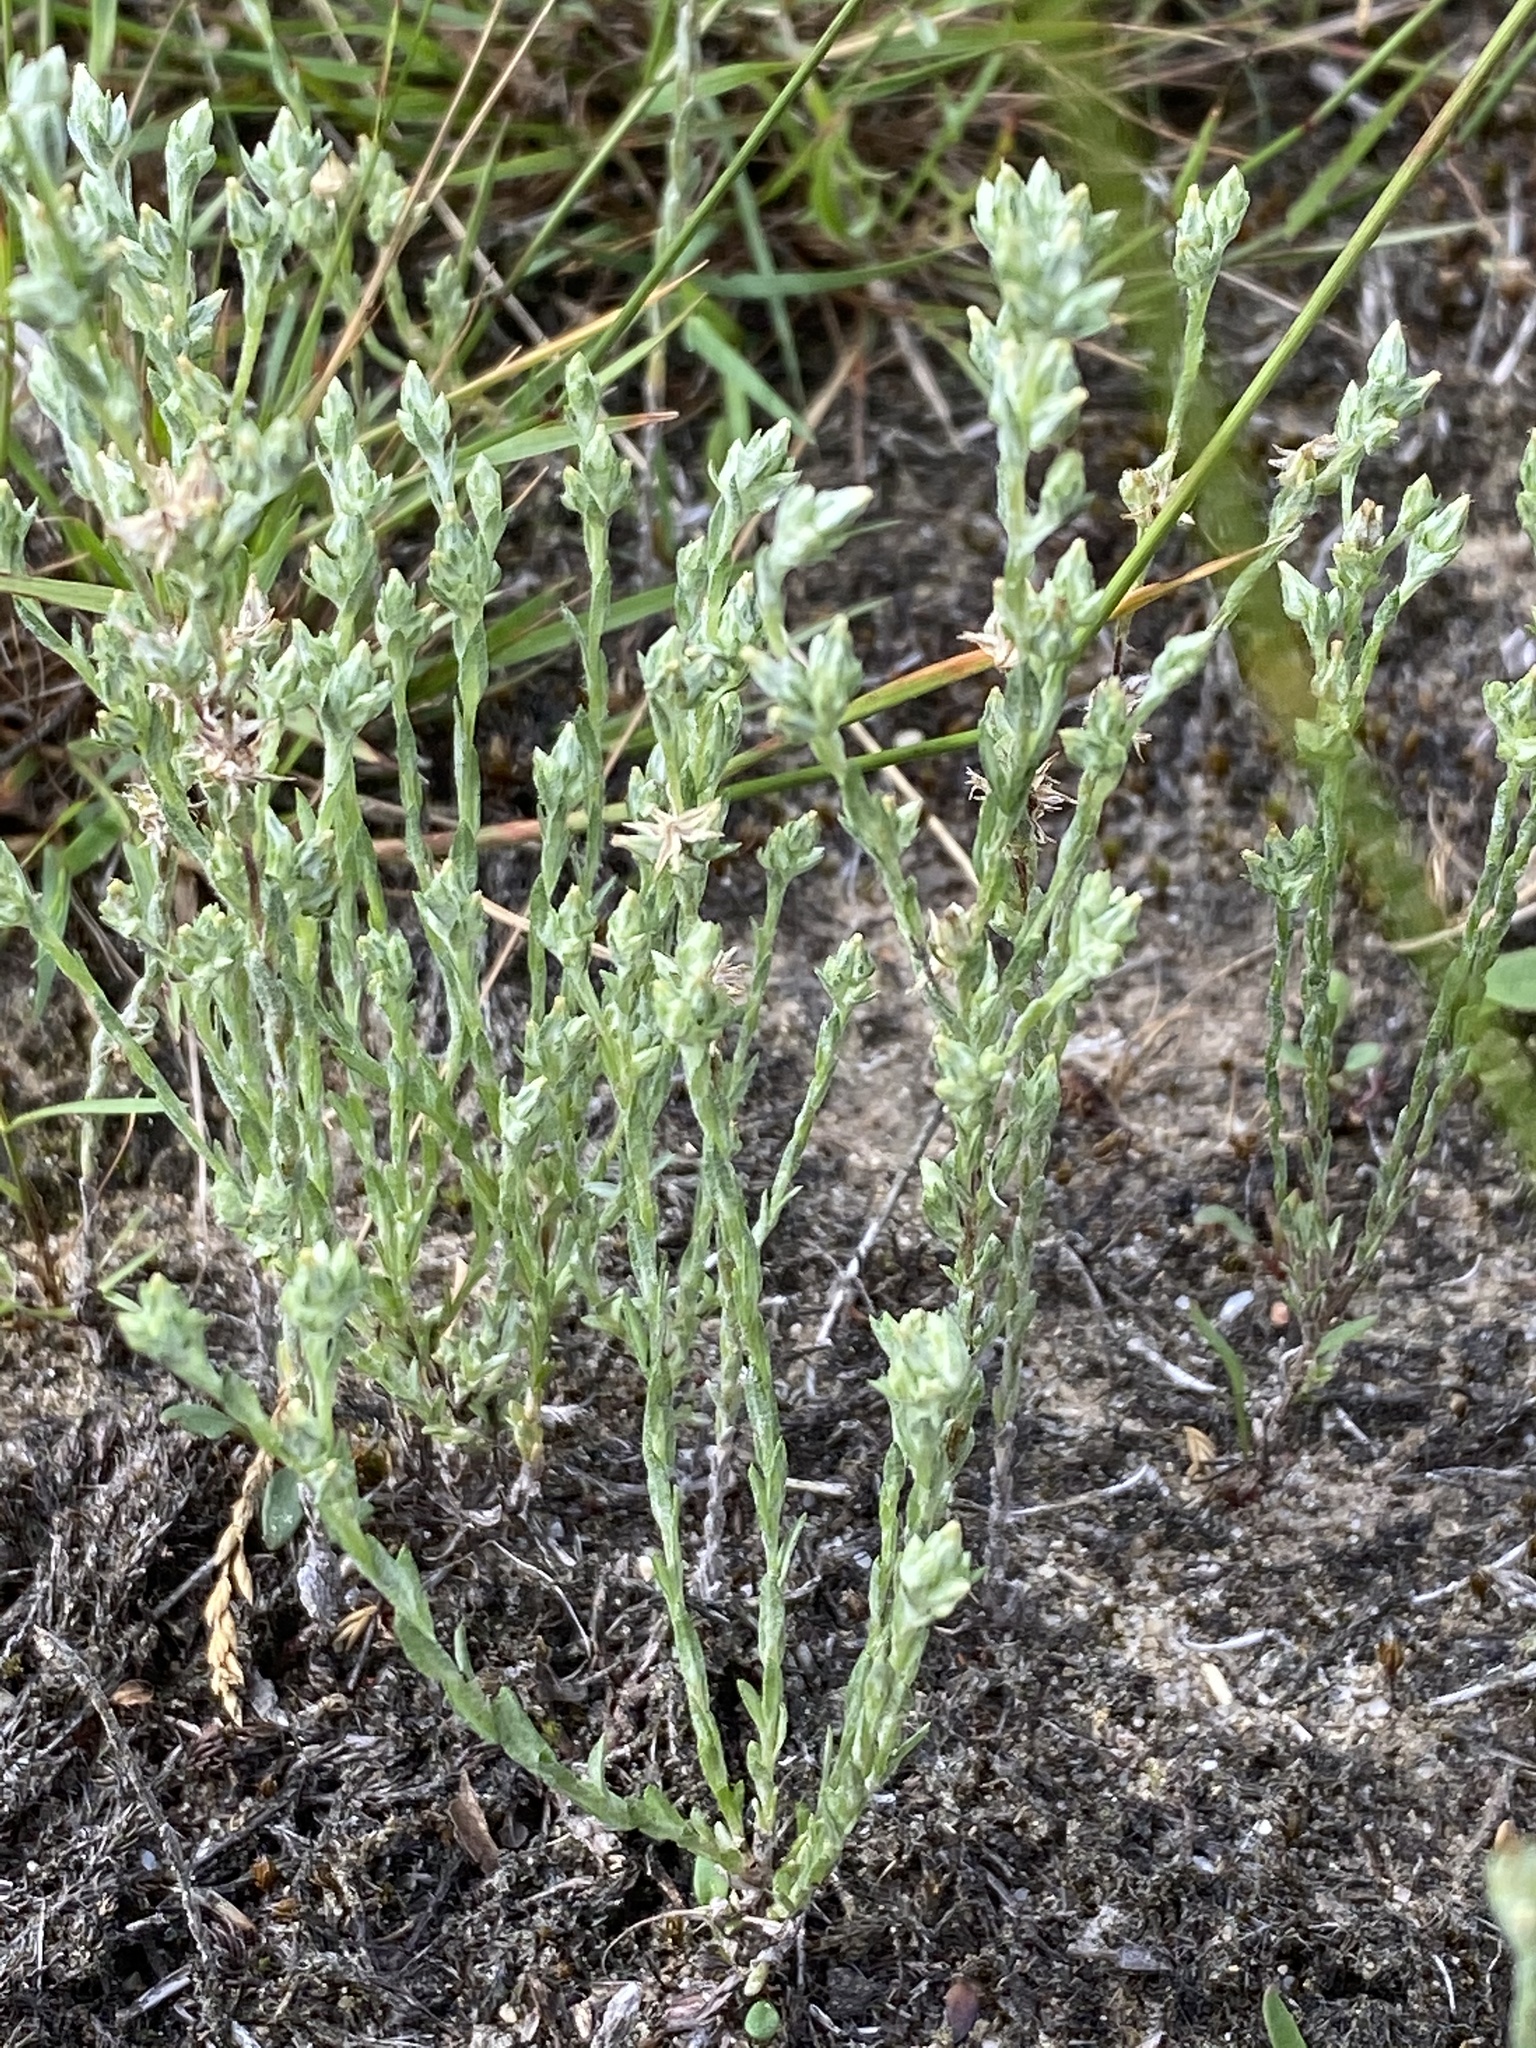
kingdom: Plantae
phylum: Tracheophyta
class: Magnoliopsida
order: Asterales
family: Asteraceae
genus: Logfia
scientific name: Logfia minima
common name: Little cottonrose
